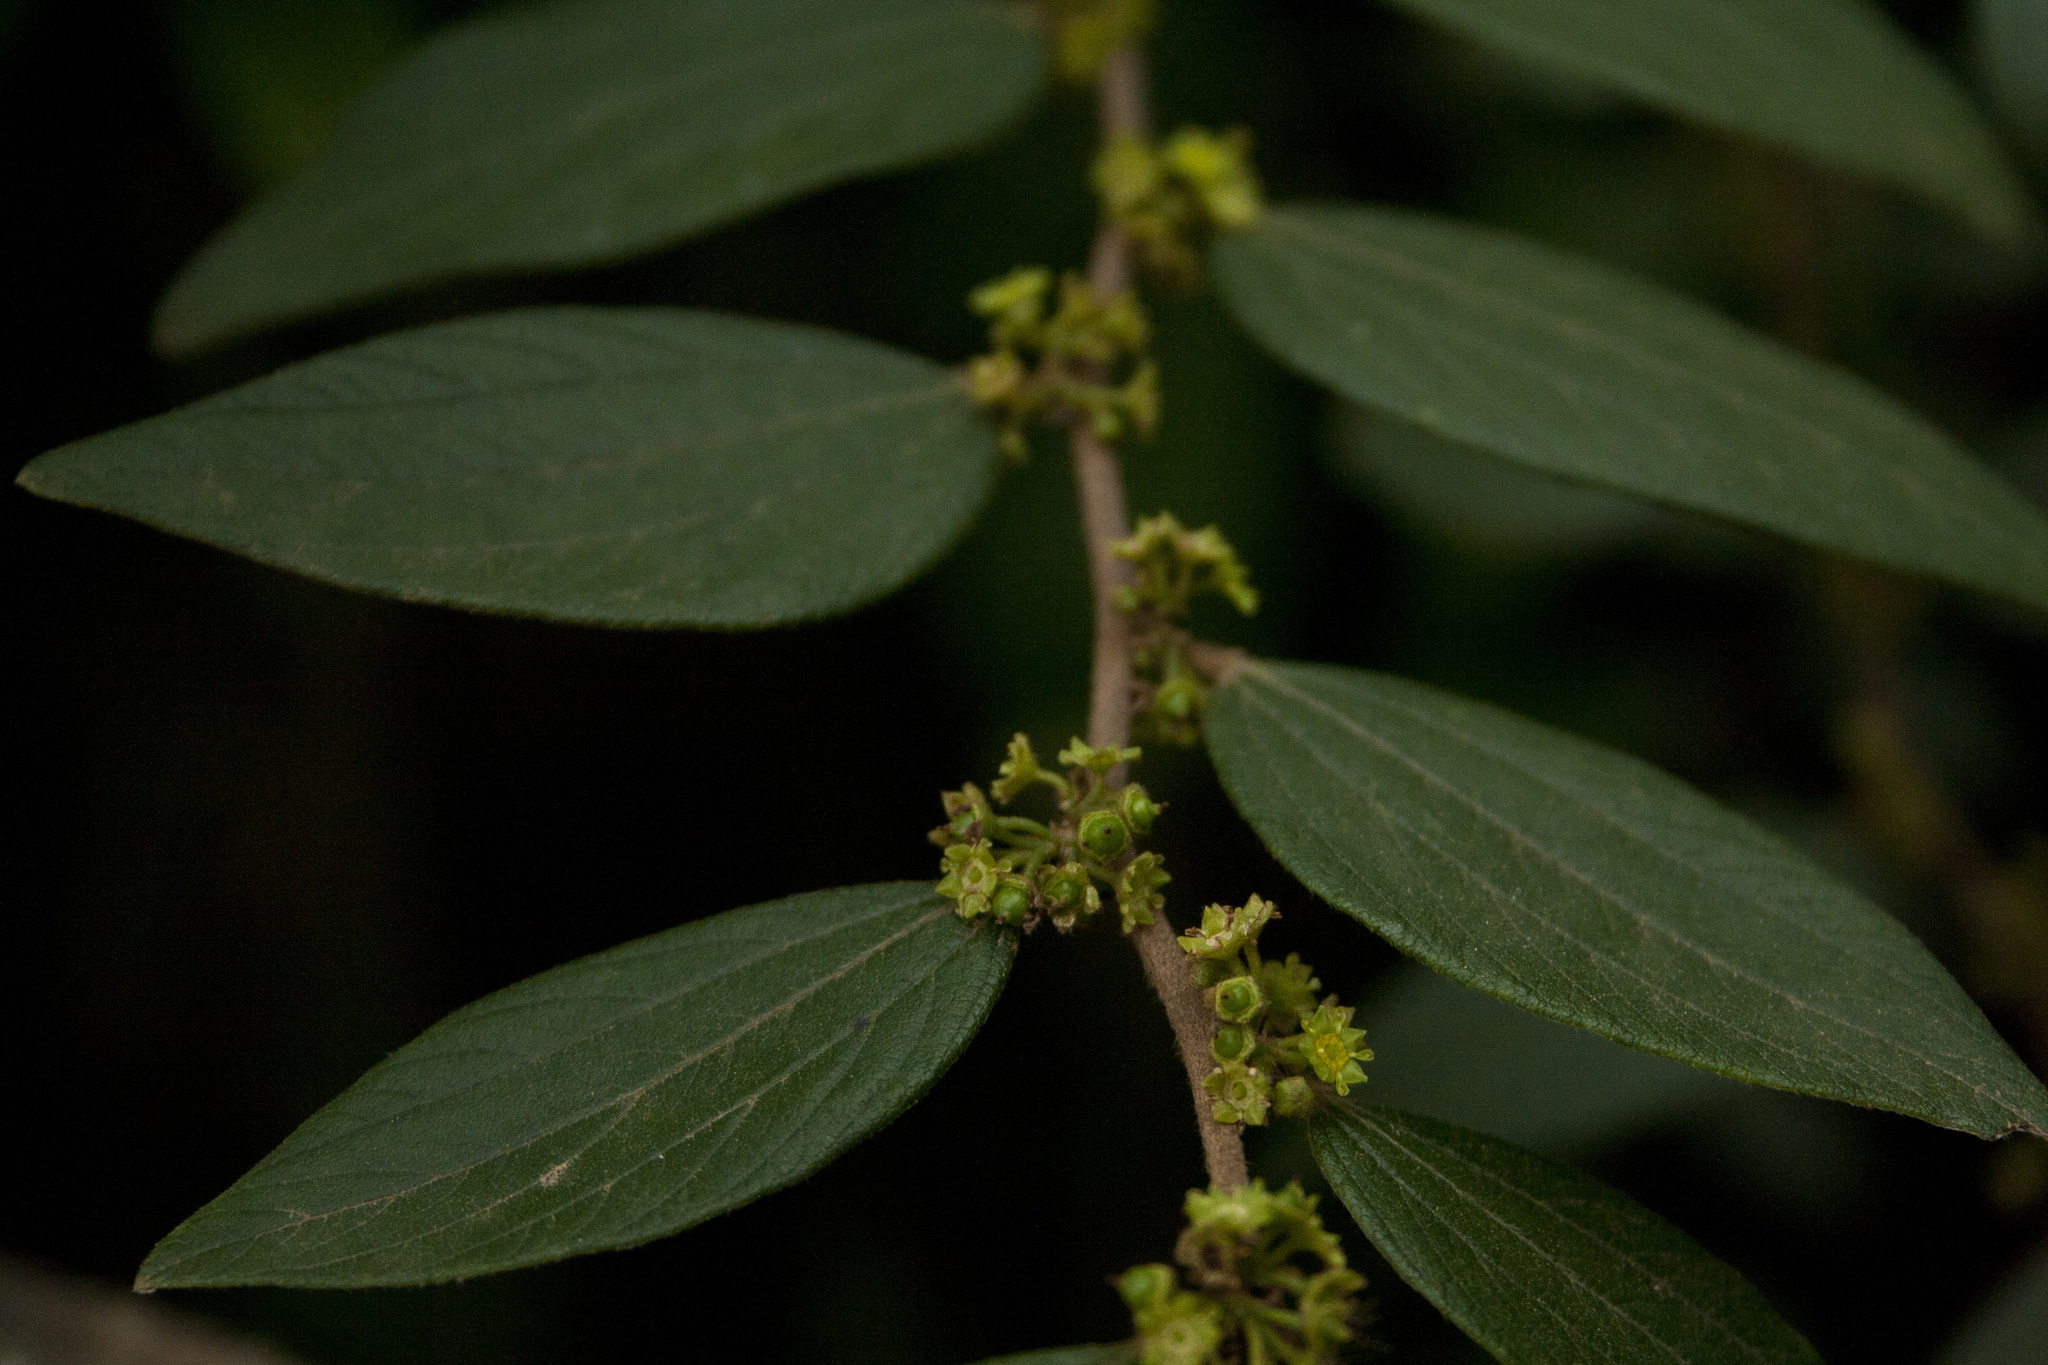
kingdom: Plantae
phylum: Tracheophyta
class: Magnoliopsida
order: Rosales
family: Rhamnaceae
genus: Ziziphus
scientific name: Ziziphus oenopolia
